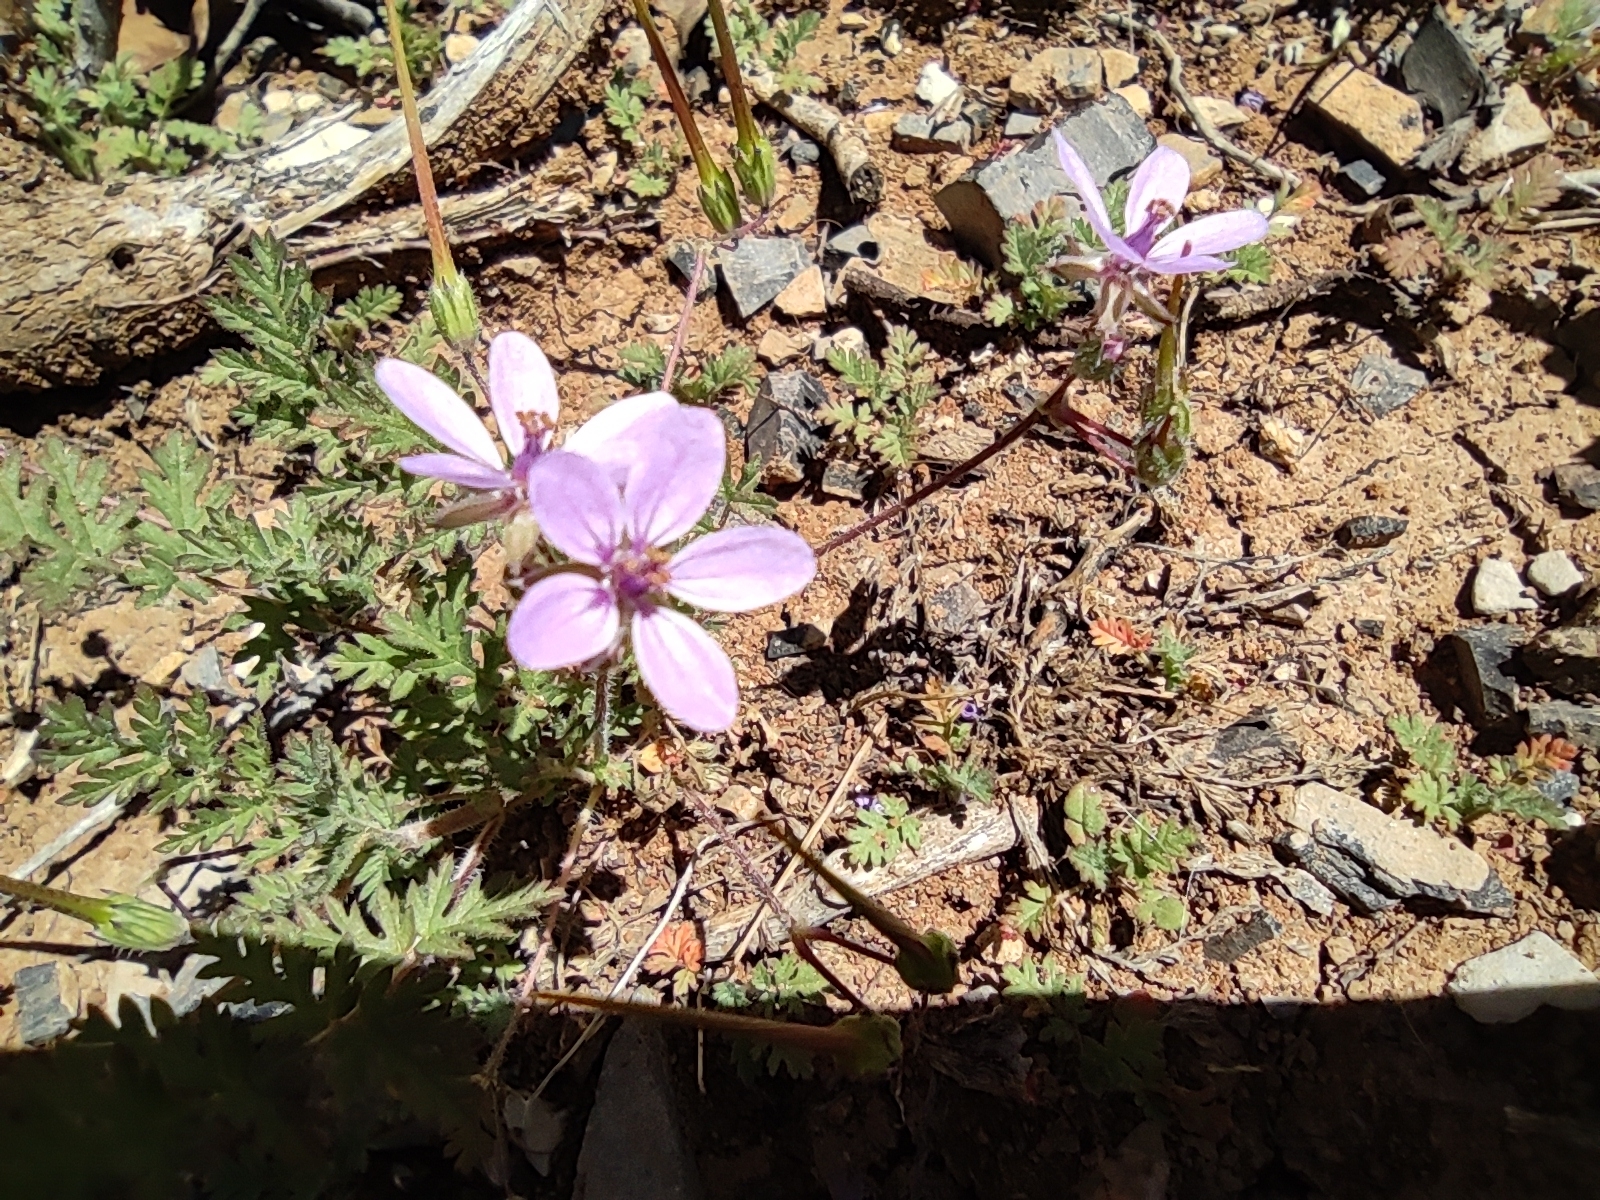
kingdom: Plantae
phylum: Tracheophyta
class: Magnoliopsida
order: Geraniales
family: Geraniaceae
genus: Erodium
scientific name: Erodium cicutarium
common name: Common stork's-bill
